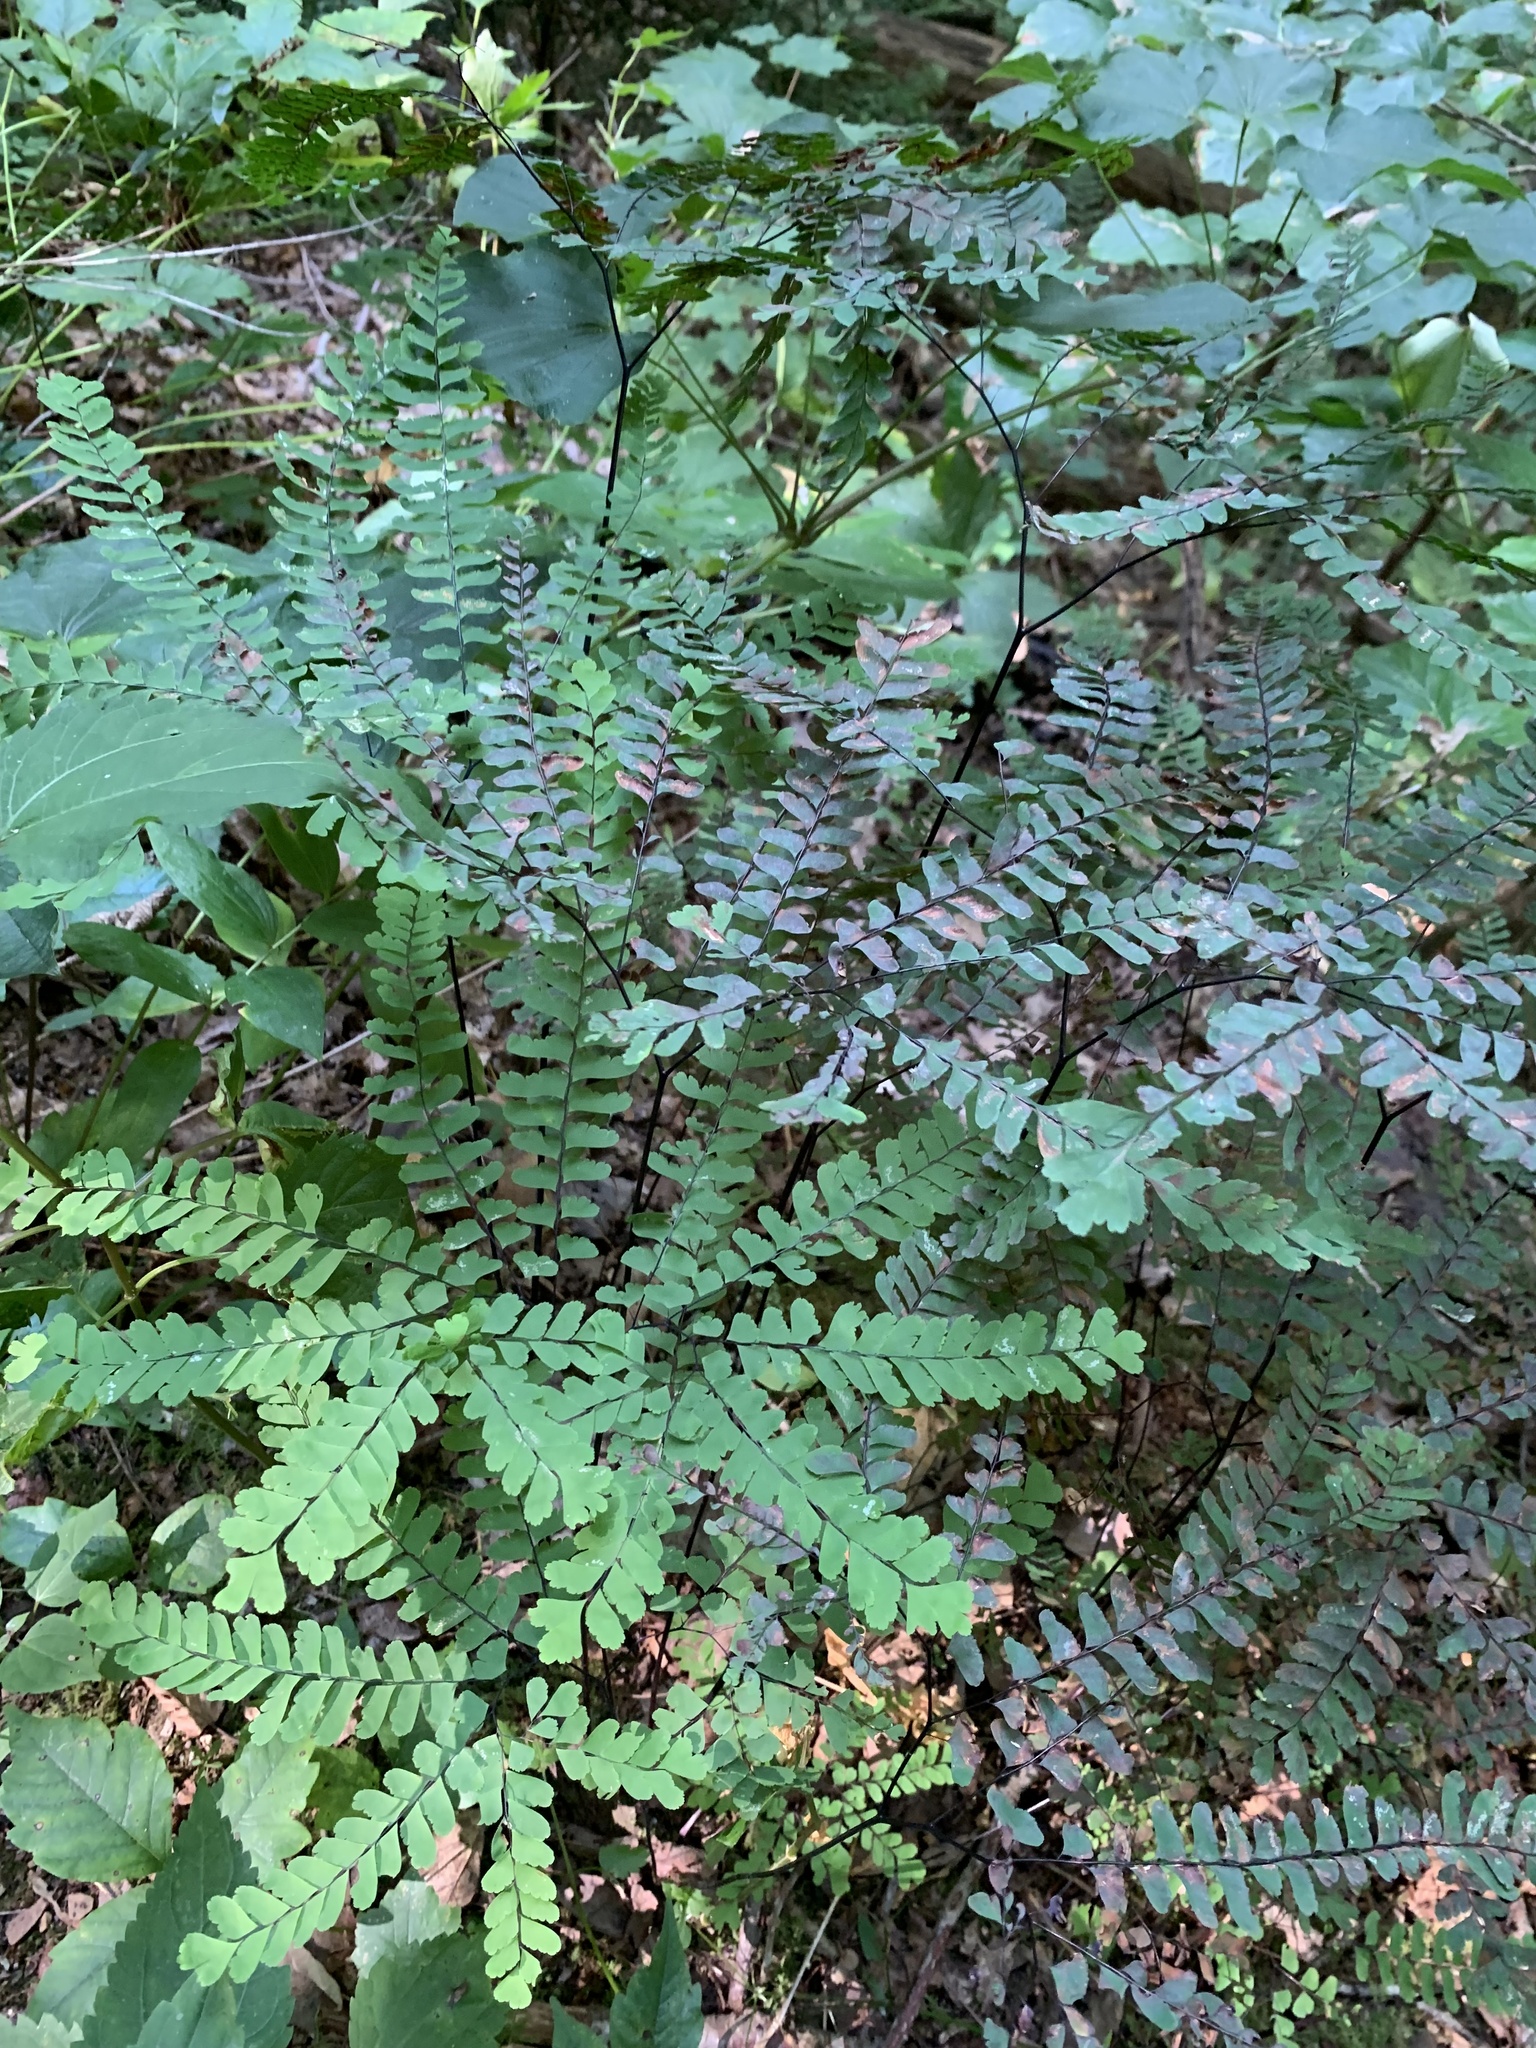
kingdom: Plantae
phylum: Tracheophyta
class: Polypodiopsida
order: Polypodiales
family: Pteridaceae
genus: Adiantum
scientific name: Adiantum pedatum
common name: Five-finger fern
